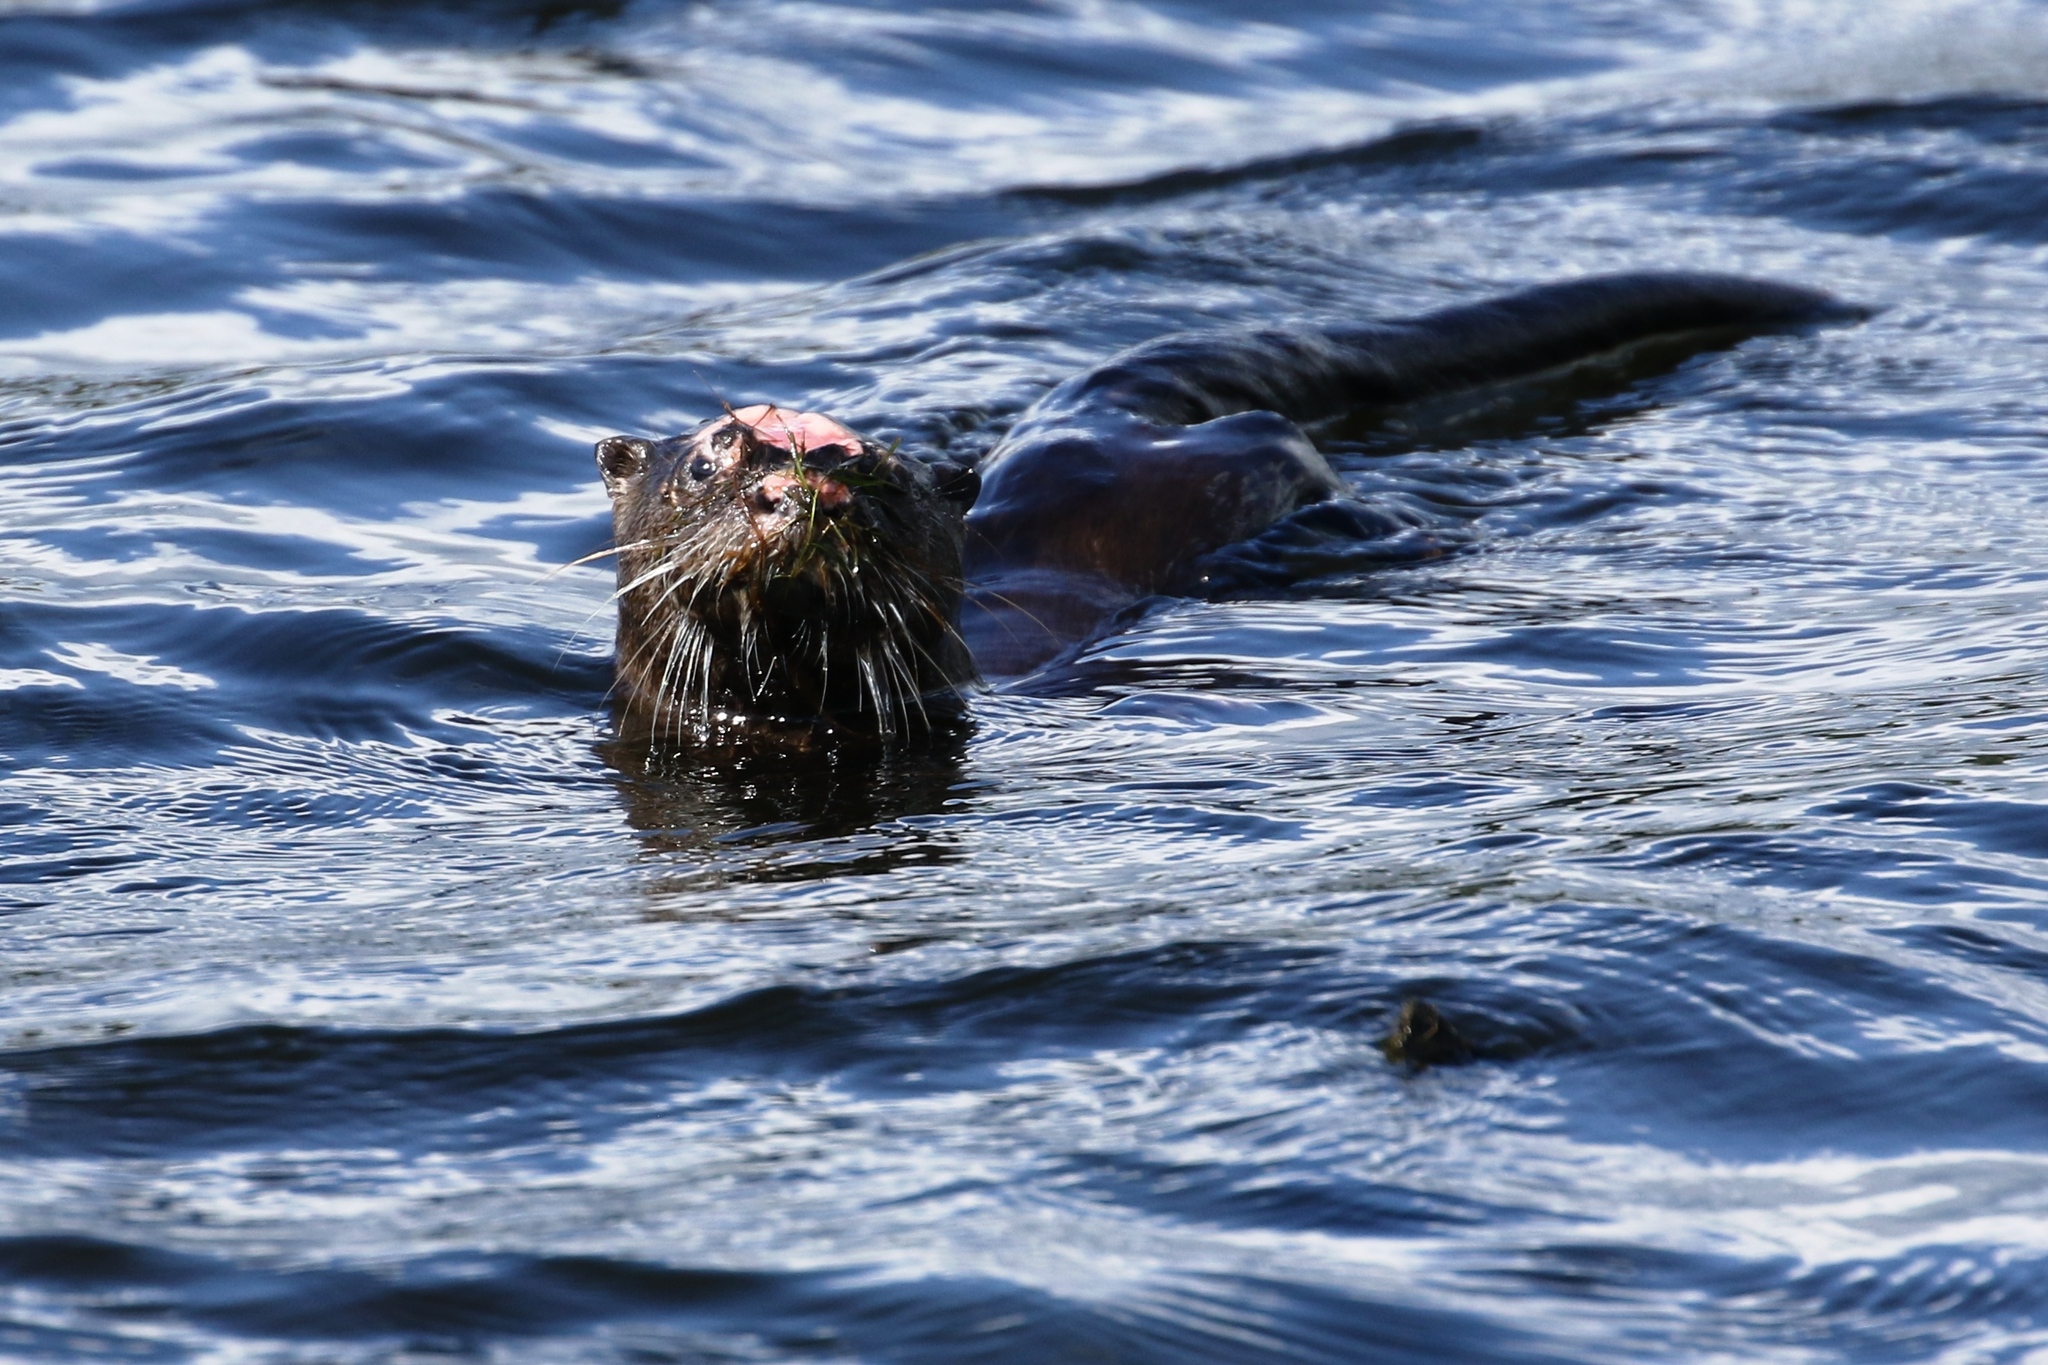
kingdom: Animalia
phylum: Chordata
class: Mammalia
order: Carnivora
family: Mustelidae
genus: Lontra
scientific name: Lontra canadensis
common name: North american river otter
